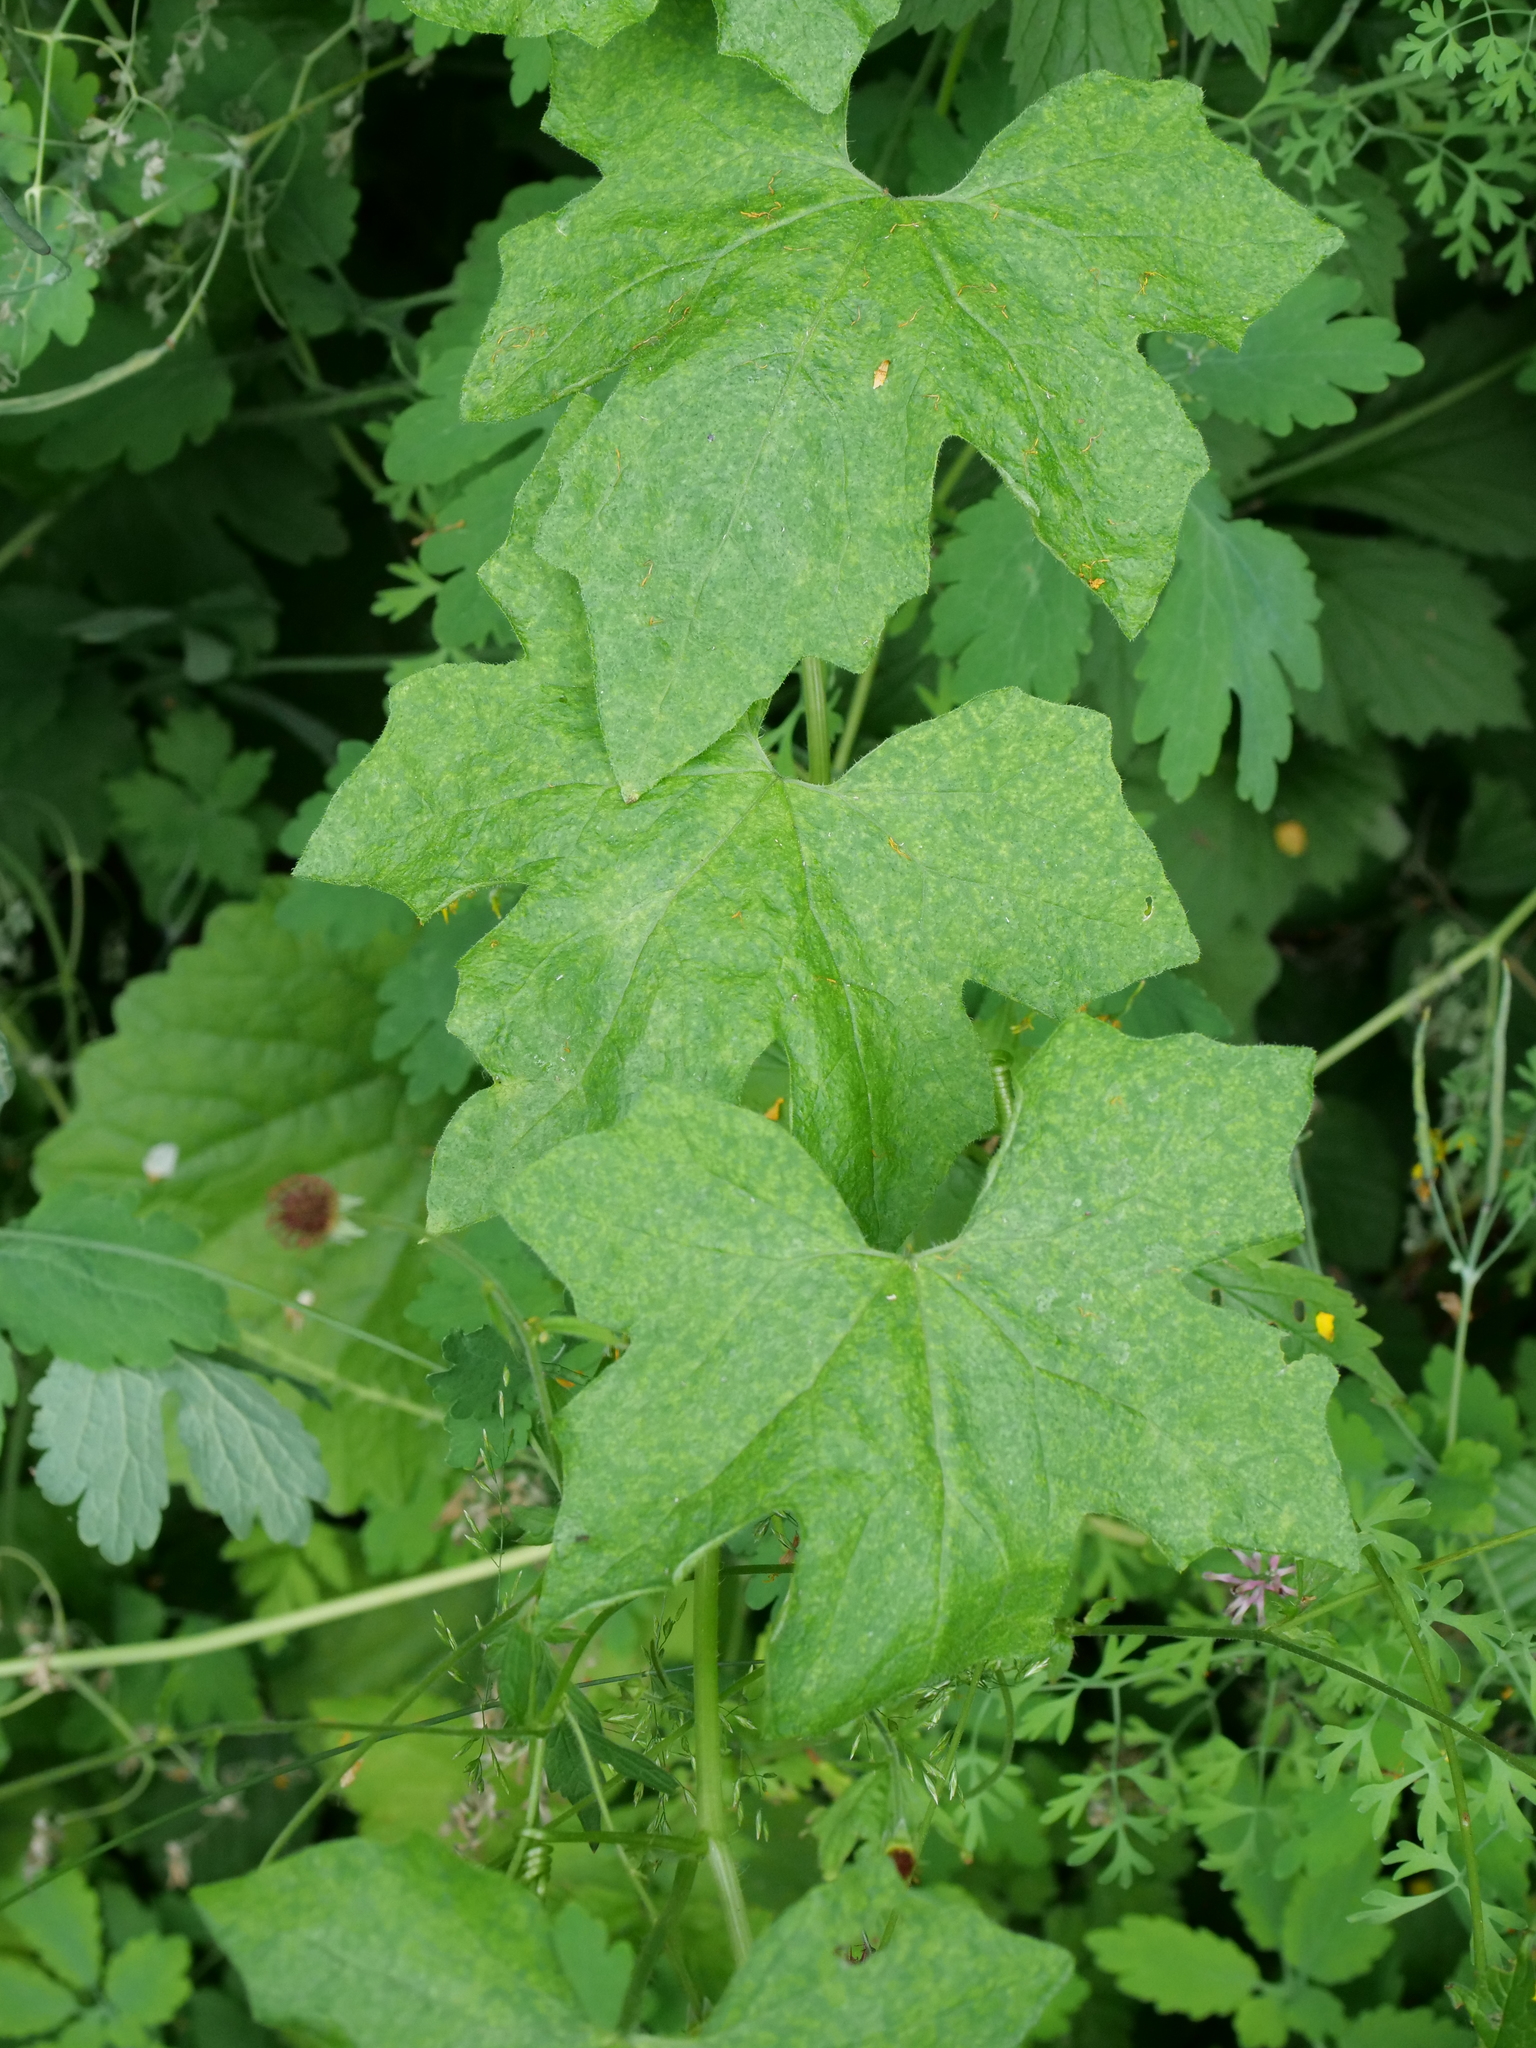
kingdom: Plantae
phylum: Tracheophyta
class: Magnoliopsida
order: Cucurbitales
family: Cucurbitaceae
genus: Bryonia
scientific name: Bryonia dioica
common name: White bryony
